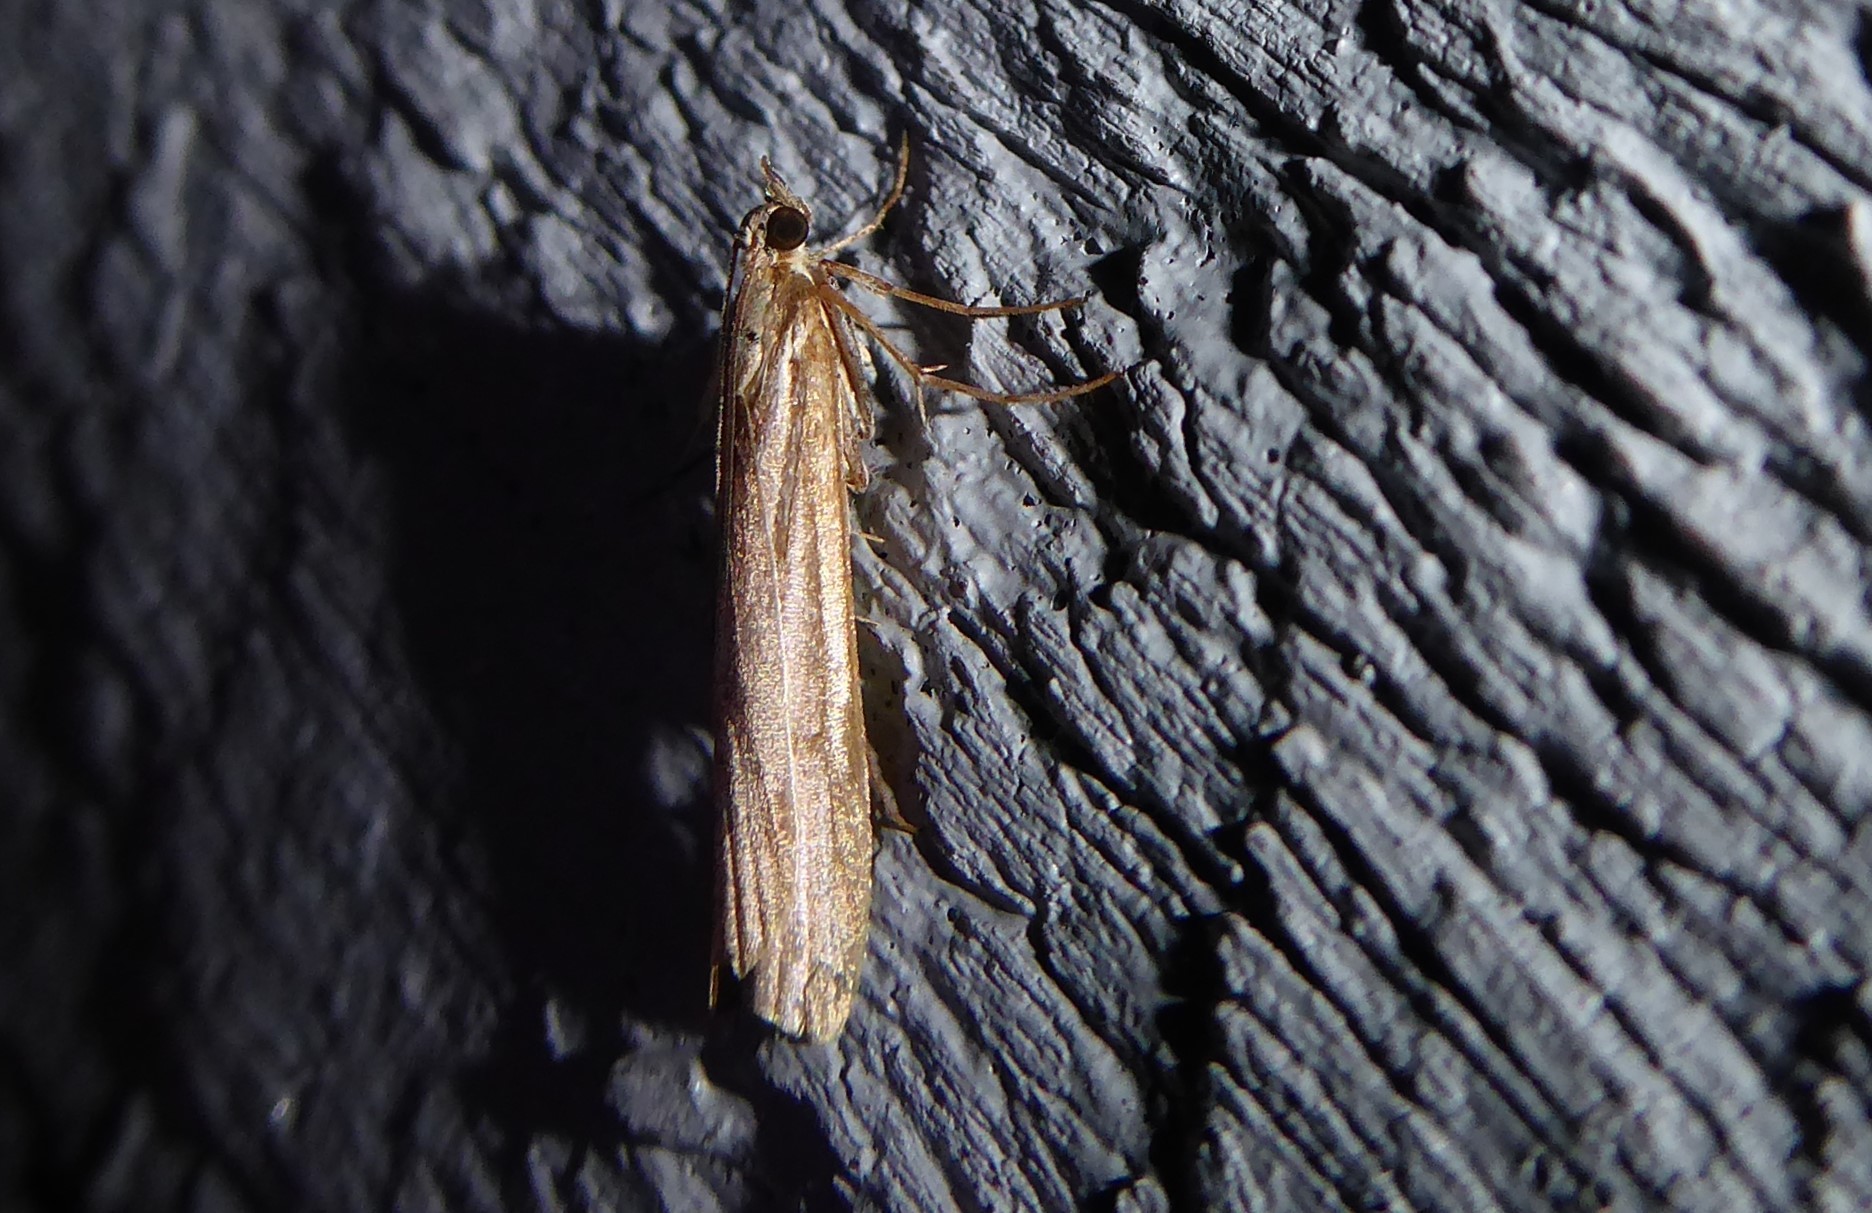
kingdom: Animalia
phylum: Arthropoda
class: Insecta
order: Lepidoptera
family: Crambidae
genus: Scoparia
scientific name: Scoparia augastis
